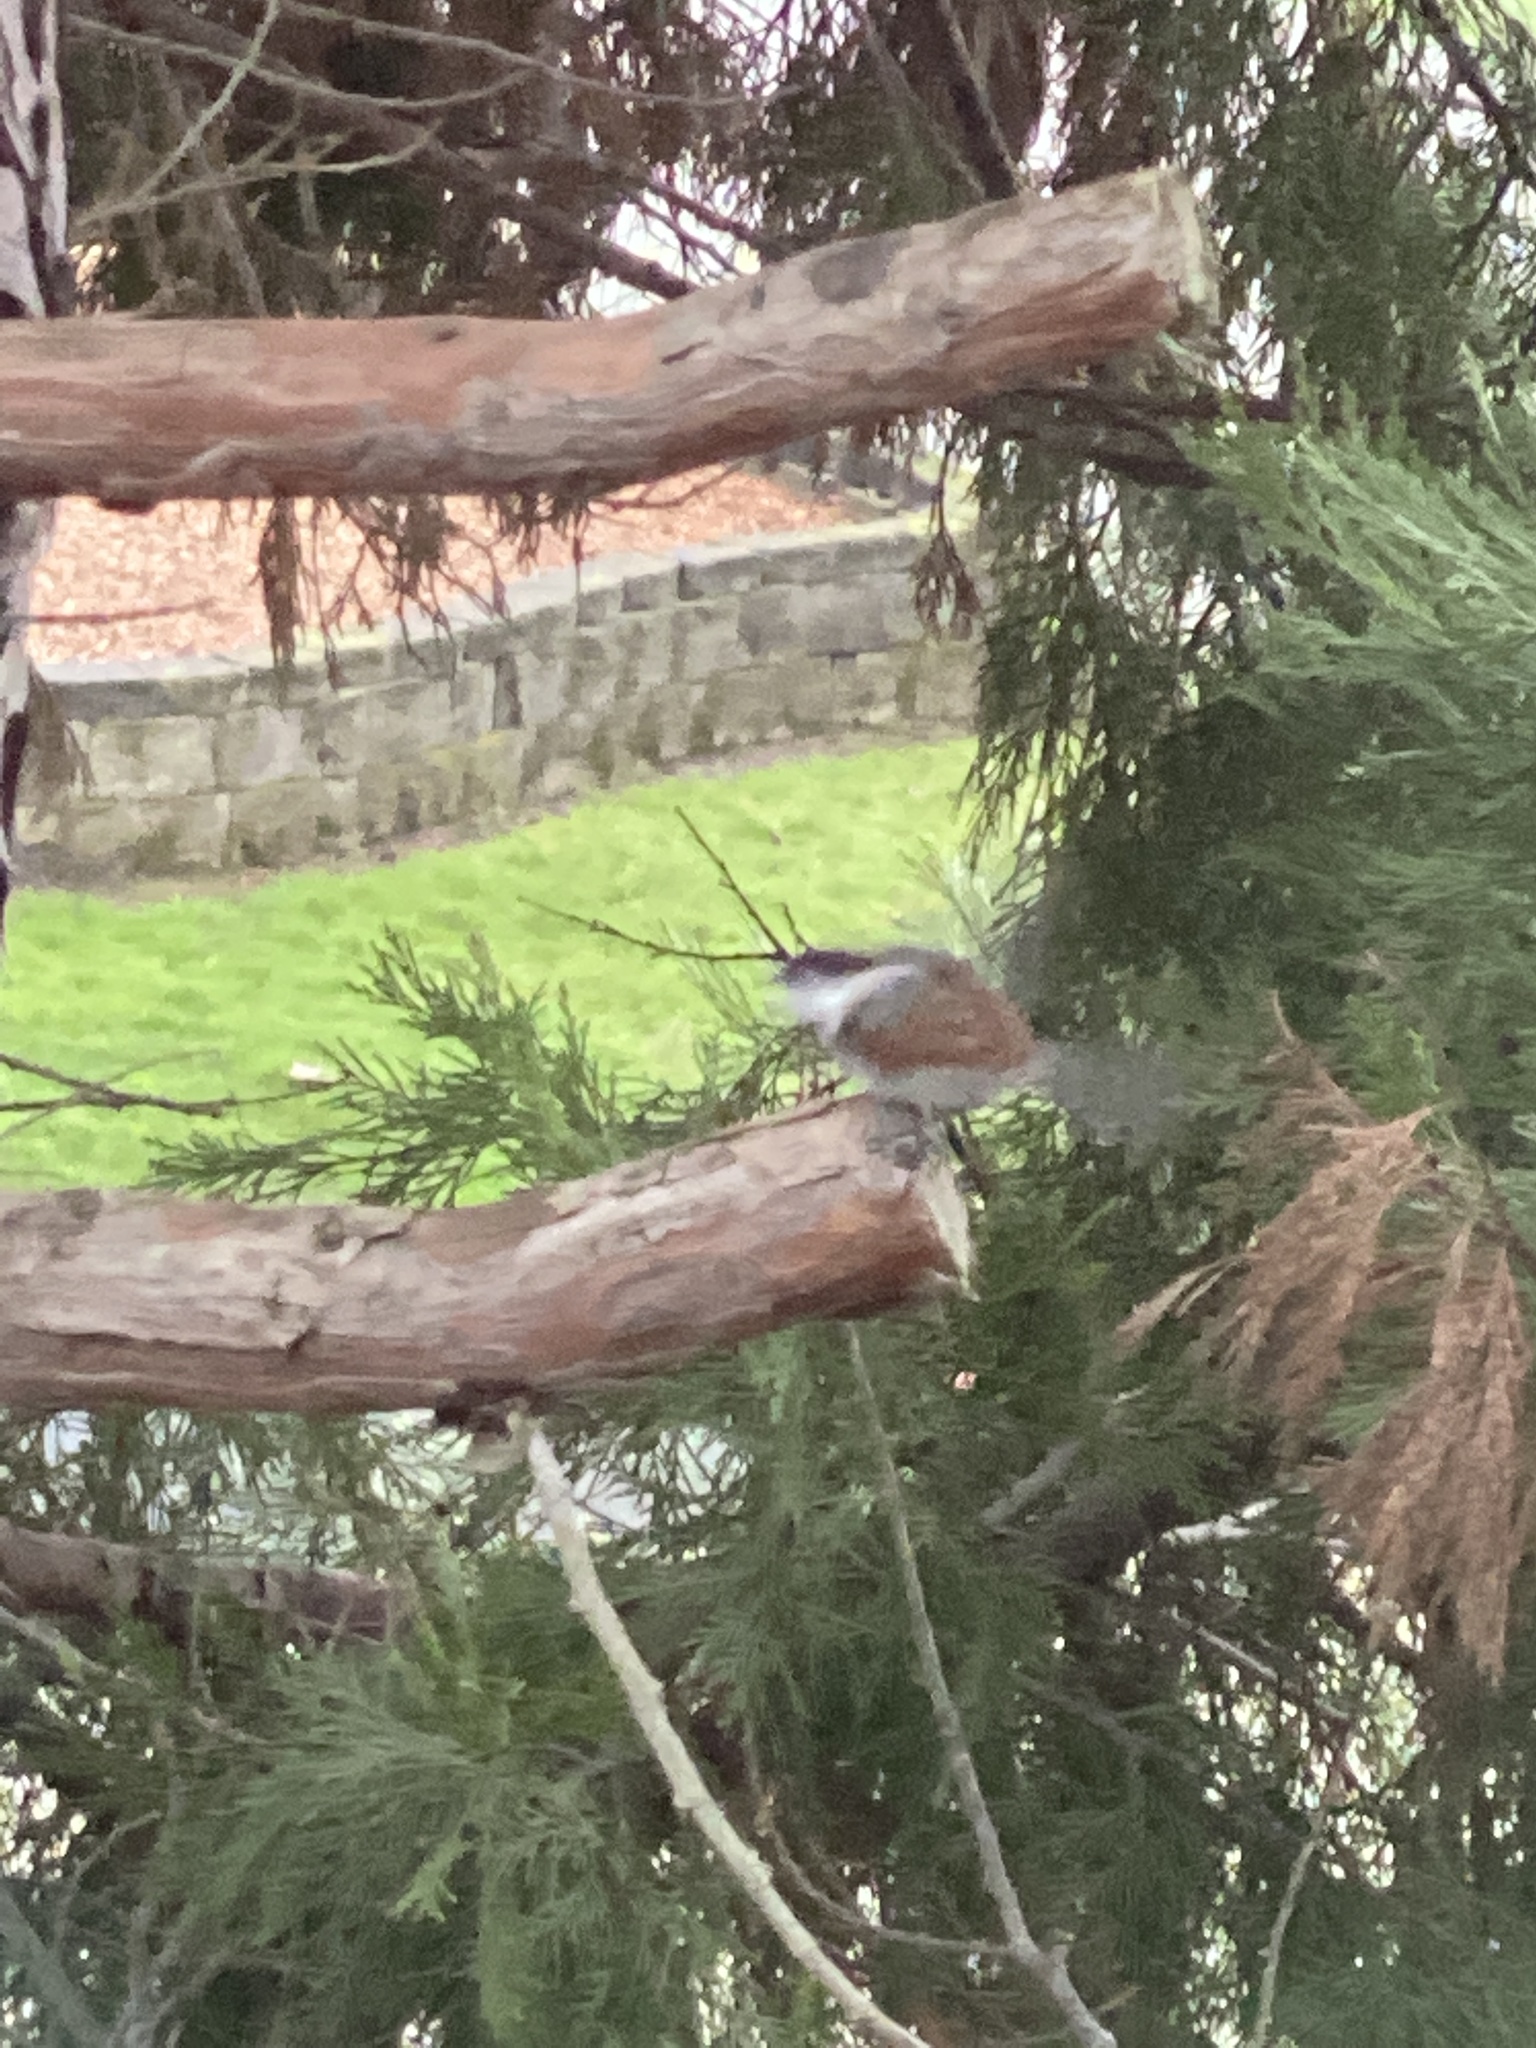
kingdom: Animalia
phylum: Chordata
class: Aves
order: Passeriformes
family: Paridae
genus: Poecile
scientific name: Poecile rufescens
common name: Chestnut-backed chickadee
